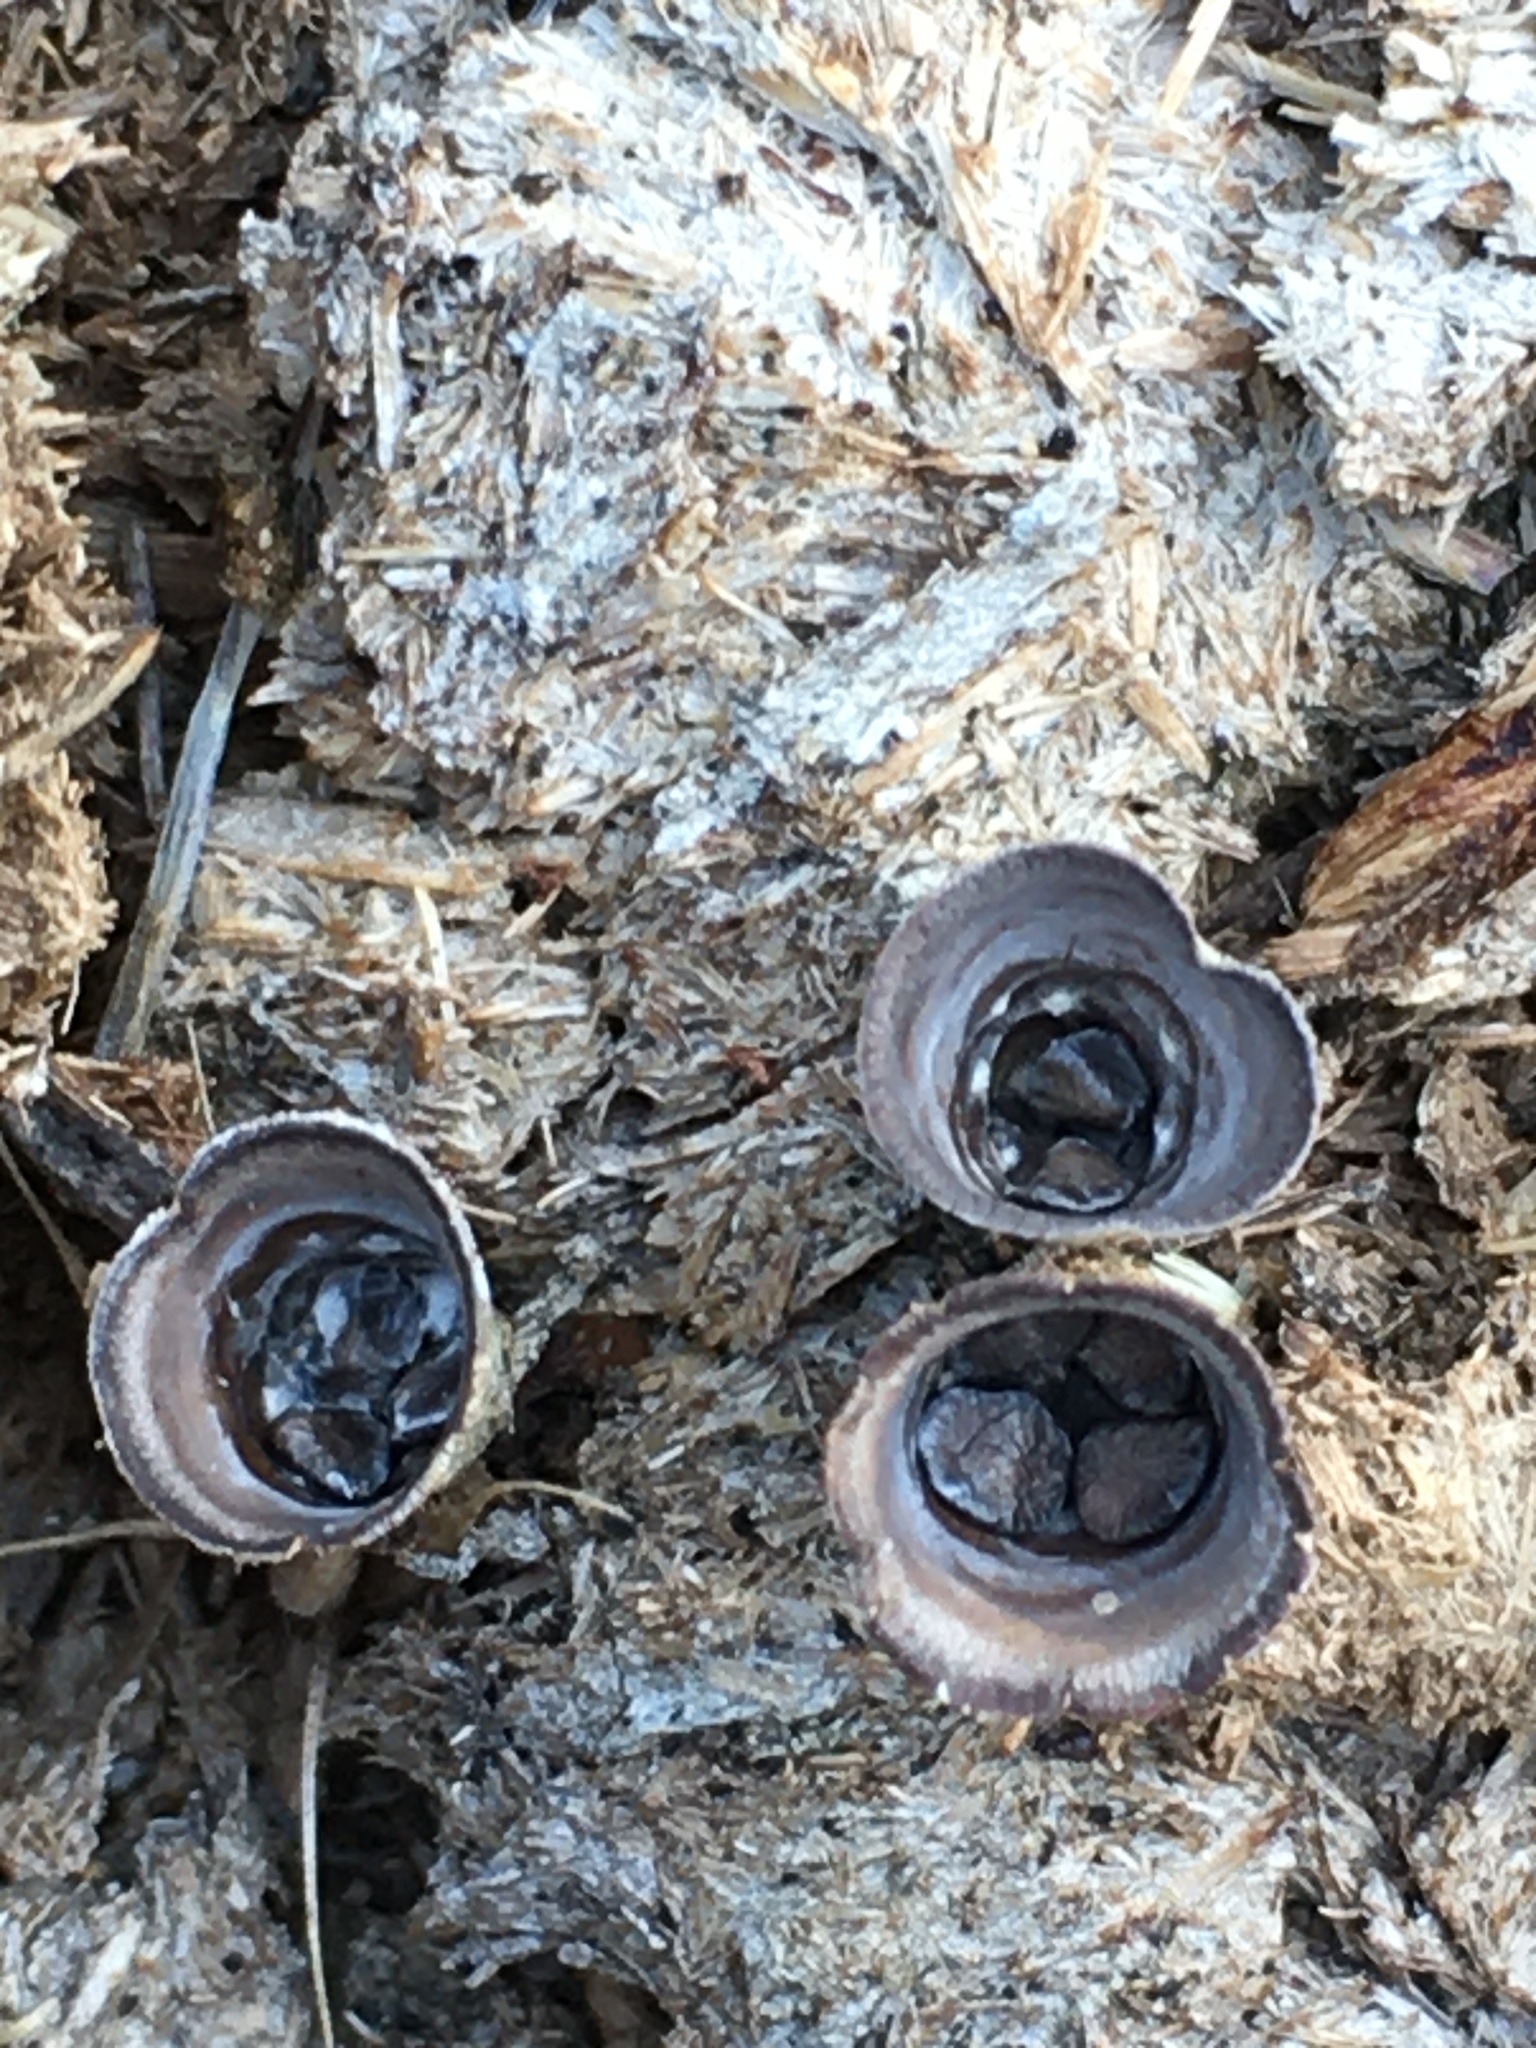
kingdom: Fungi
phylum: Basidiomycota
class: Agaricomycetes
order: Agaricales
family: Agaricaceae
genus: Cyathus
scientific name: Cyathus stercoreus
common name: Dung bird's nest
